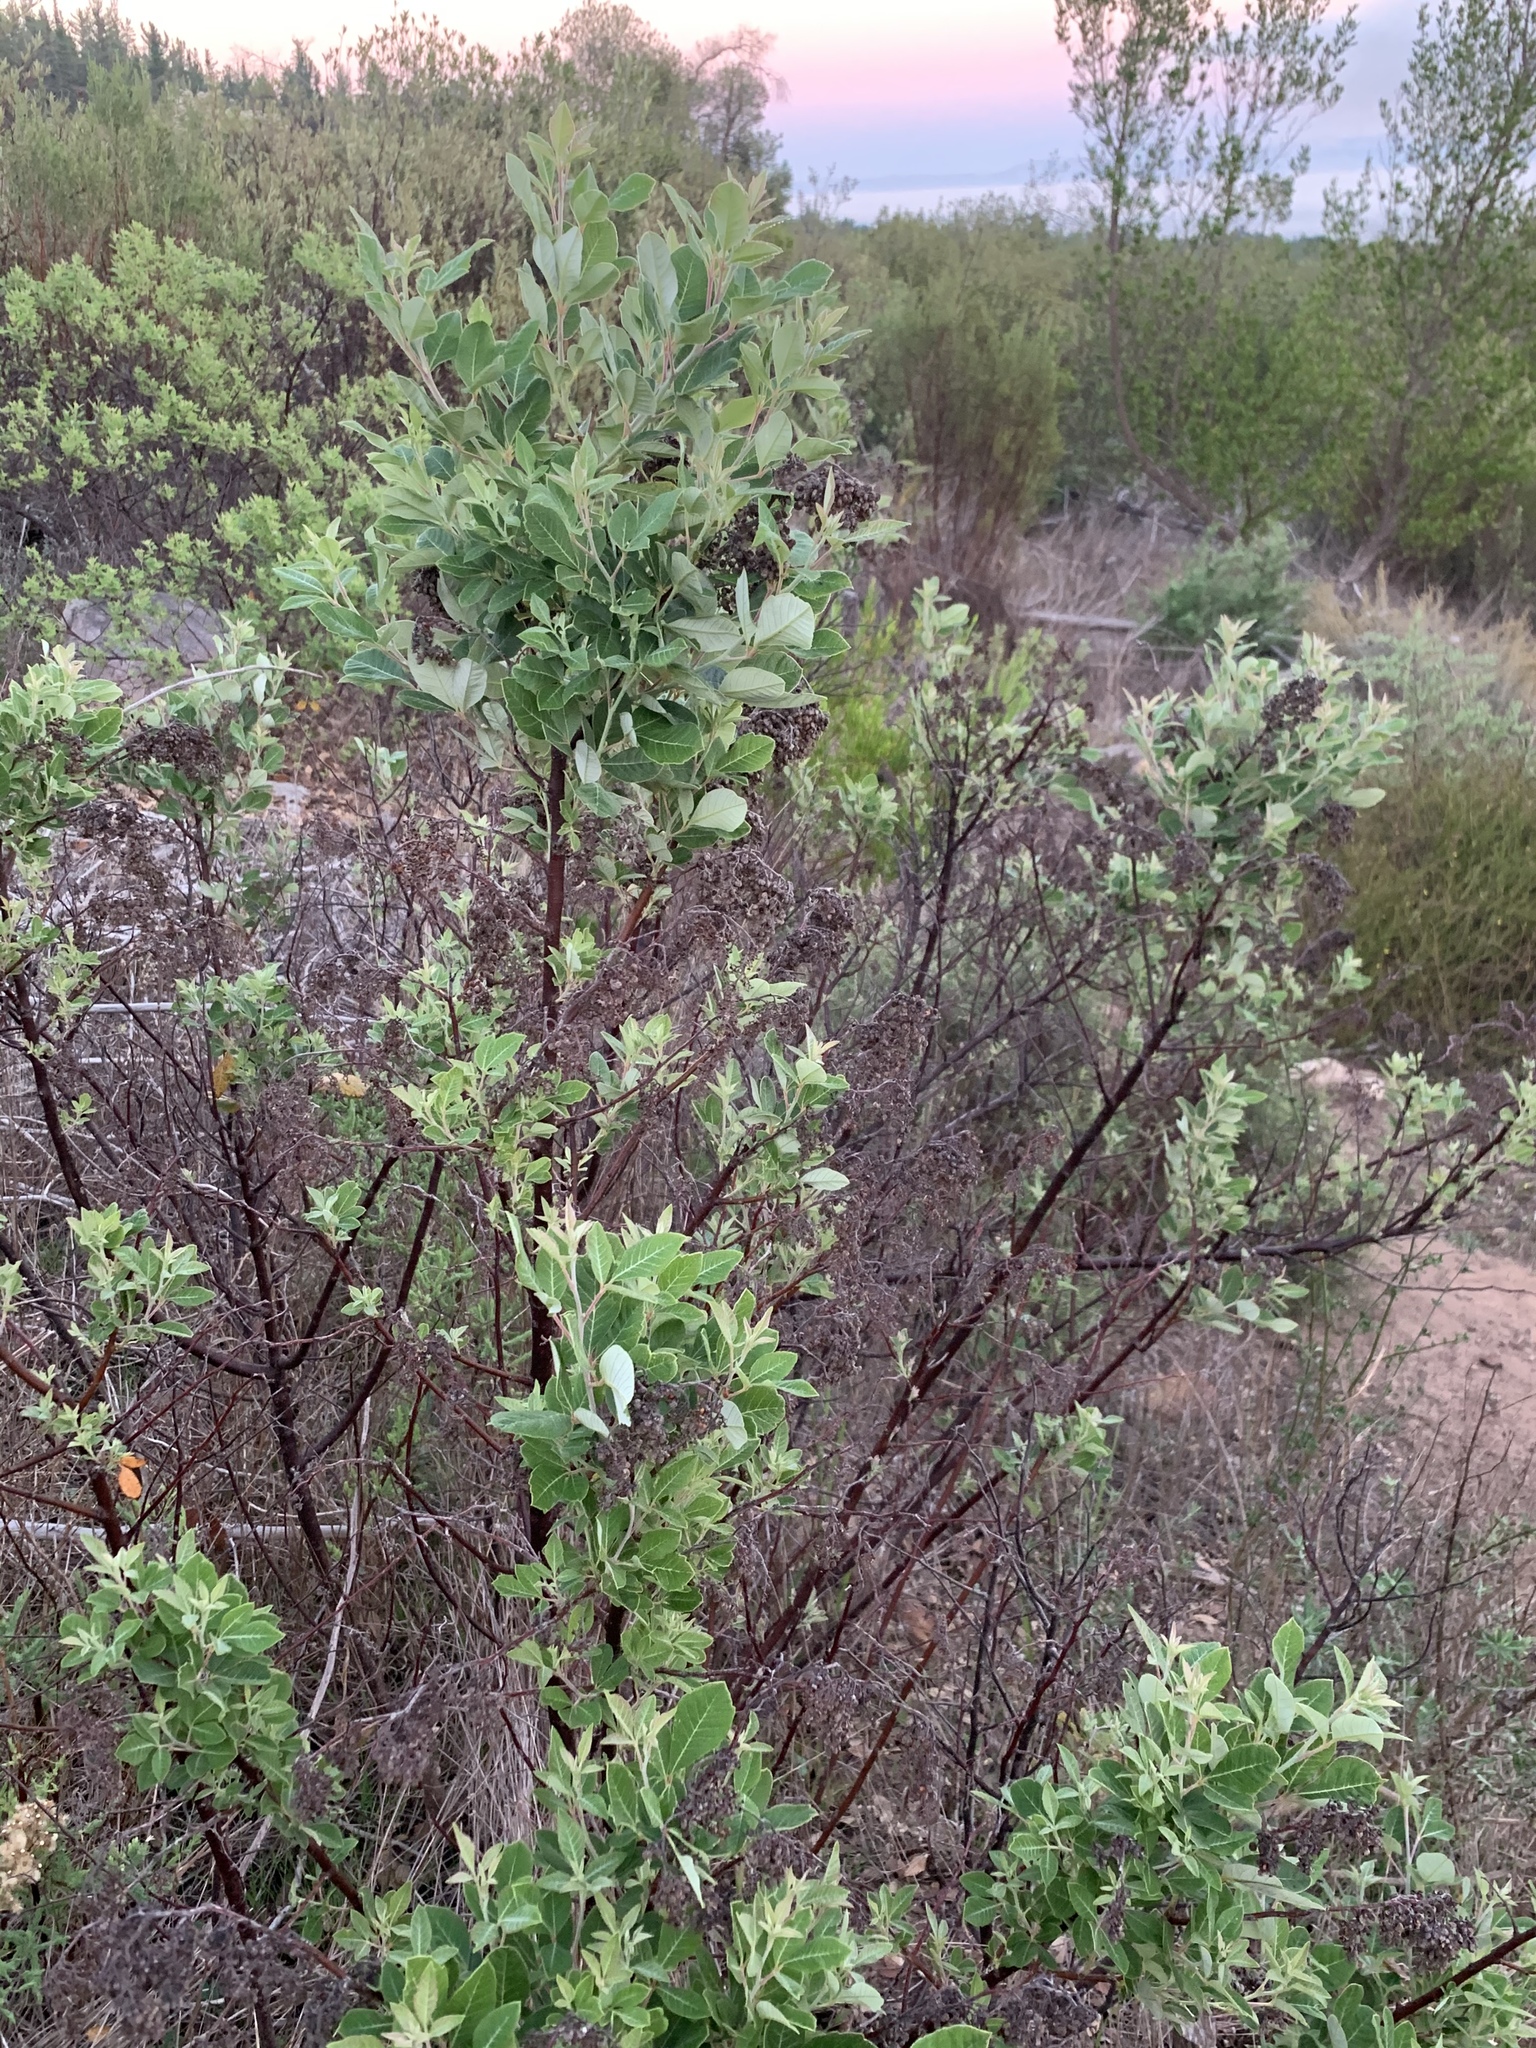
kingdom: Plantae
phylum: Tracheophyta
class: Magnoliopsida
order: Sapindales
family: Anacardiaceae
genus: Searsia
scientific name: Searsia tomentosa
